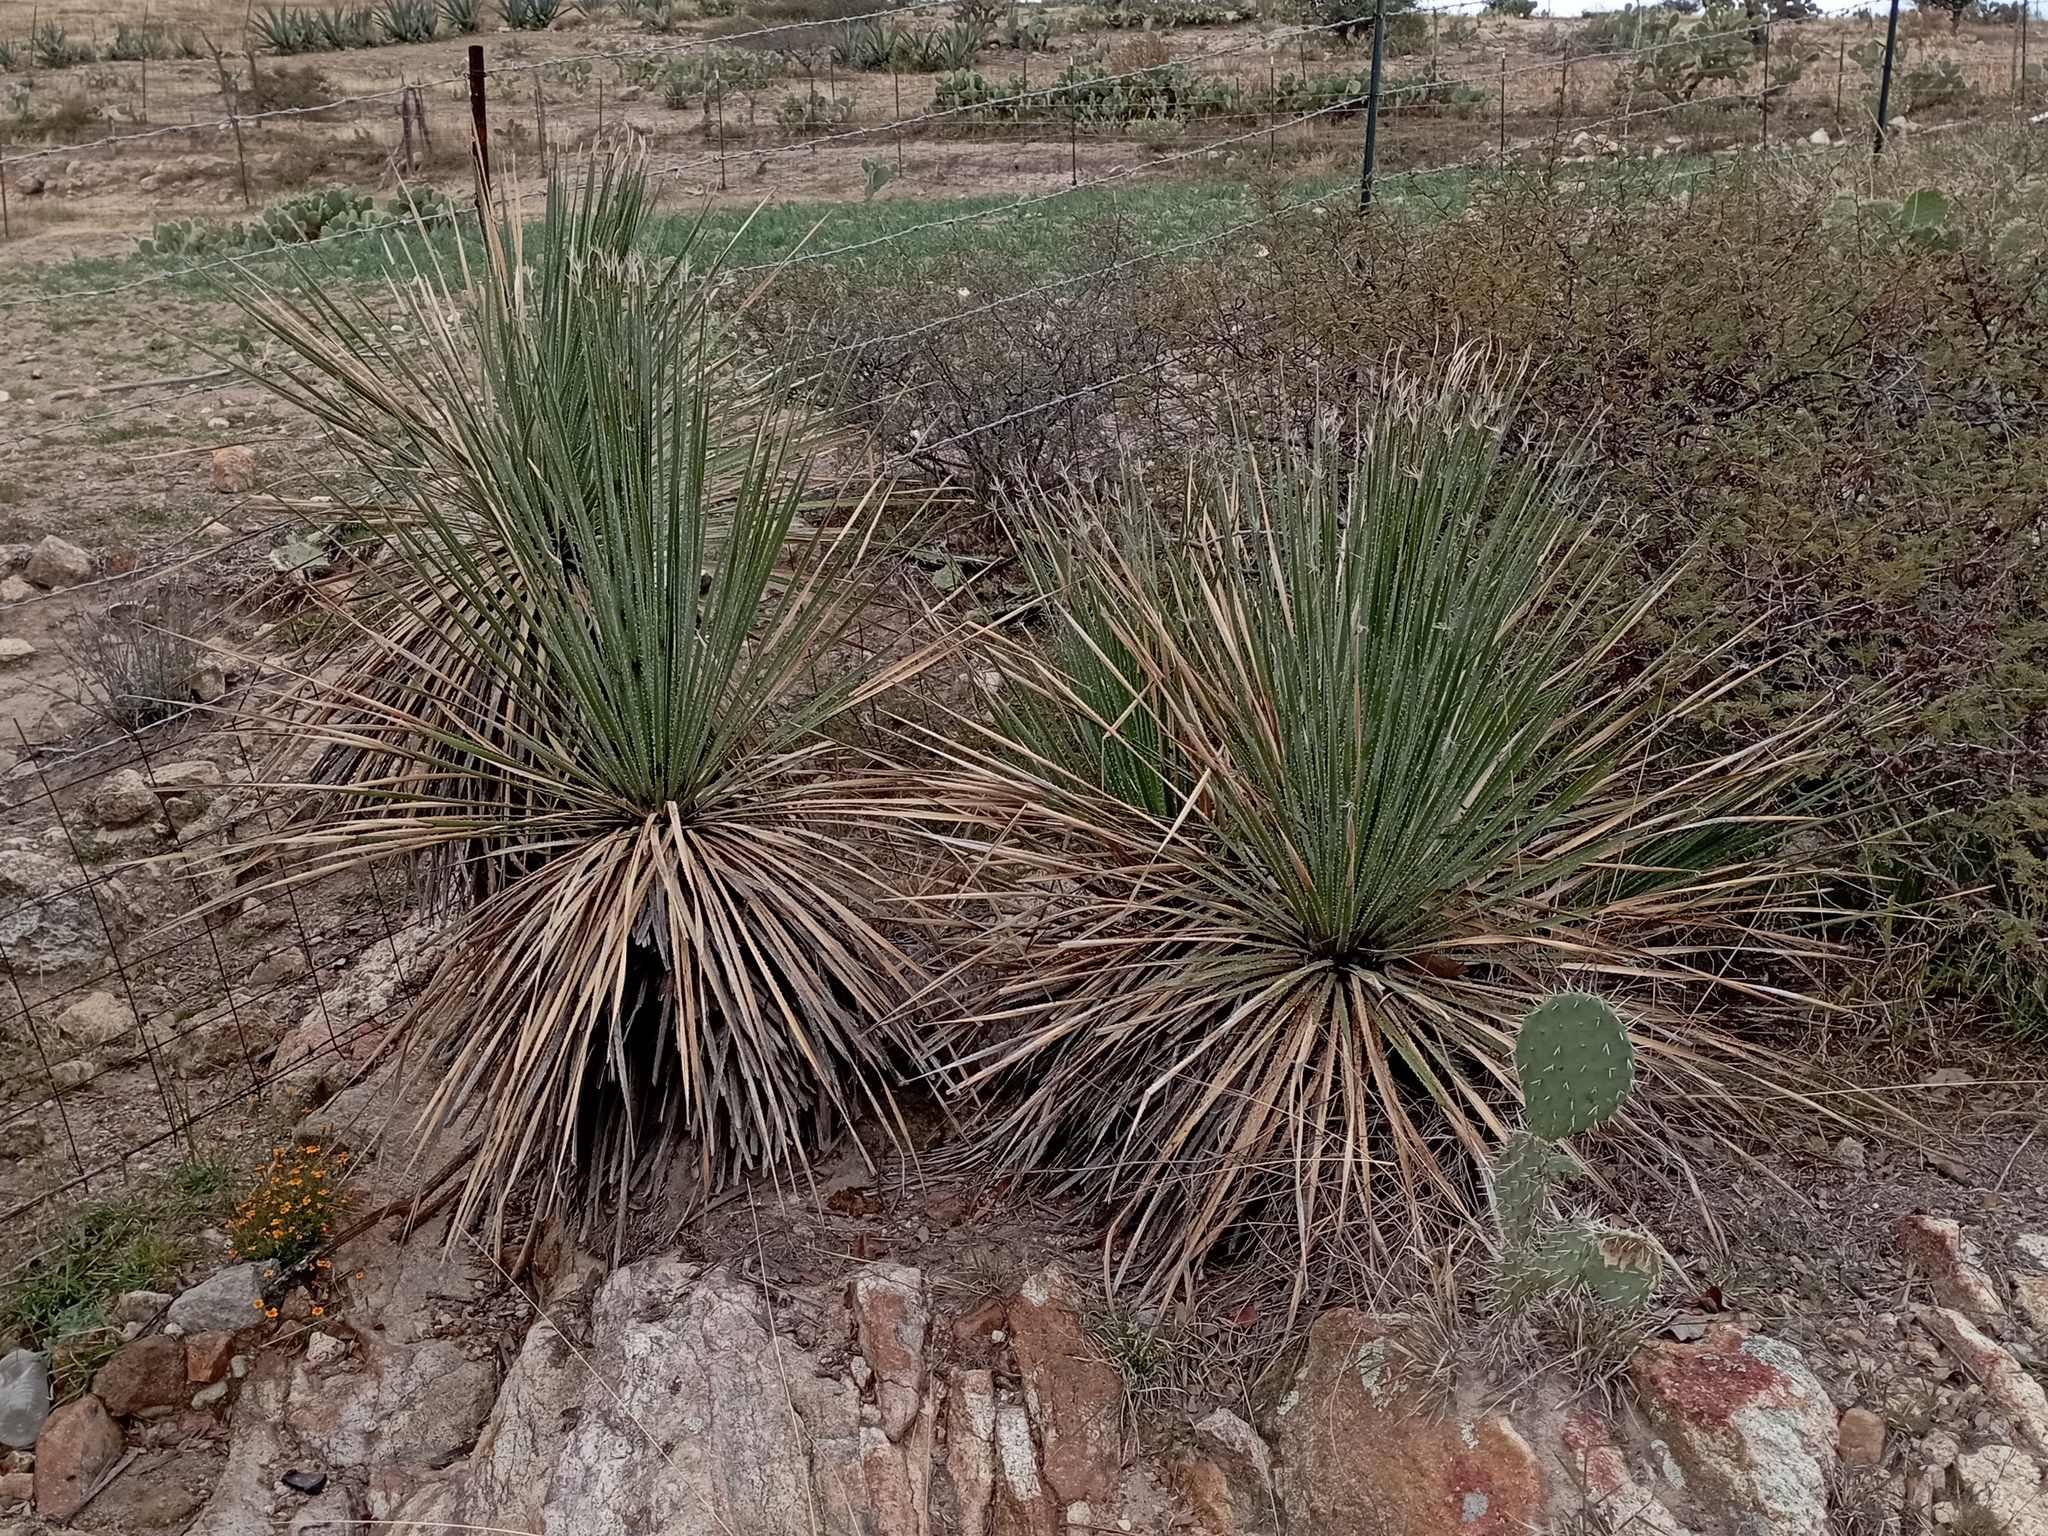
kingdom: Plantae
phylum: Tracheophyta
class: Liliopsida
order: Asparagales
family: Asparagaceae
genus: Dasylirion
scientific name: Dasylirion acrotrichum
